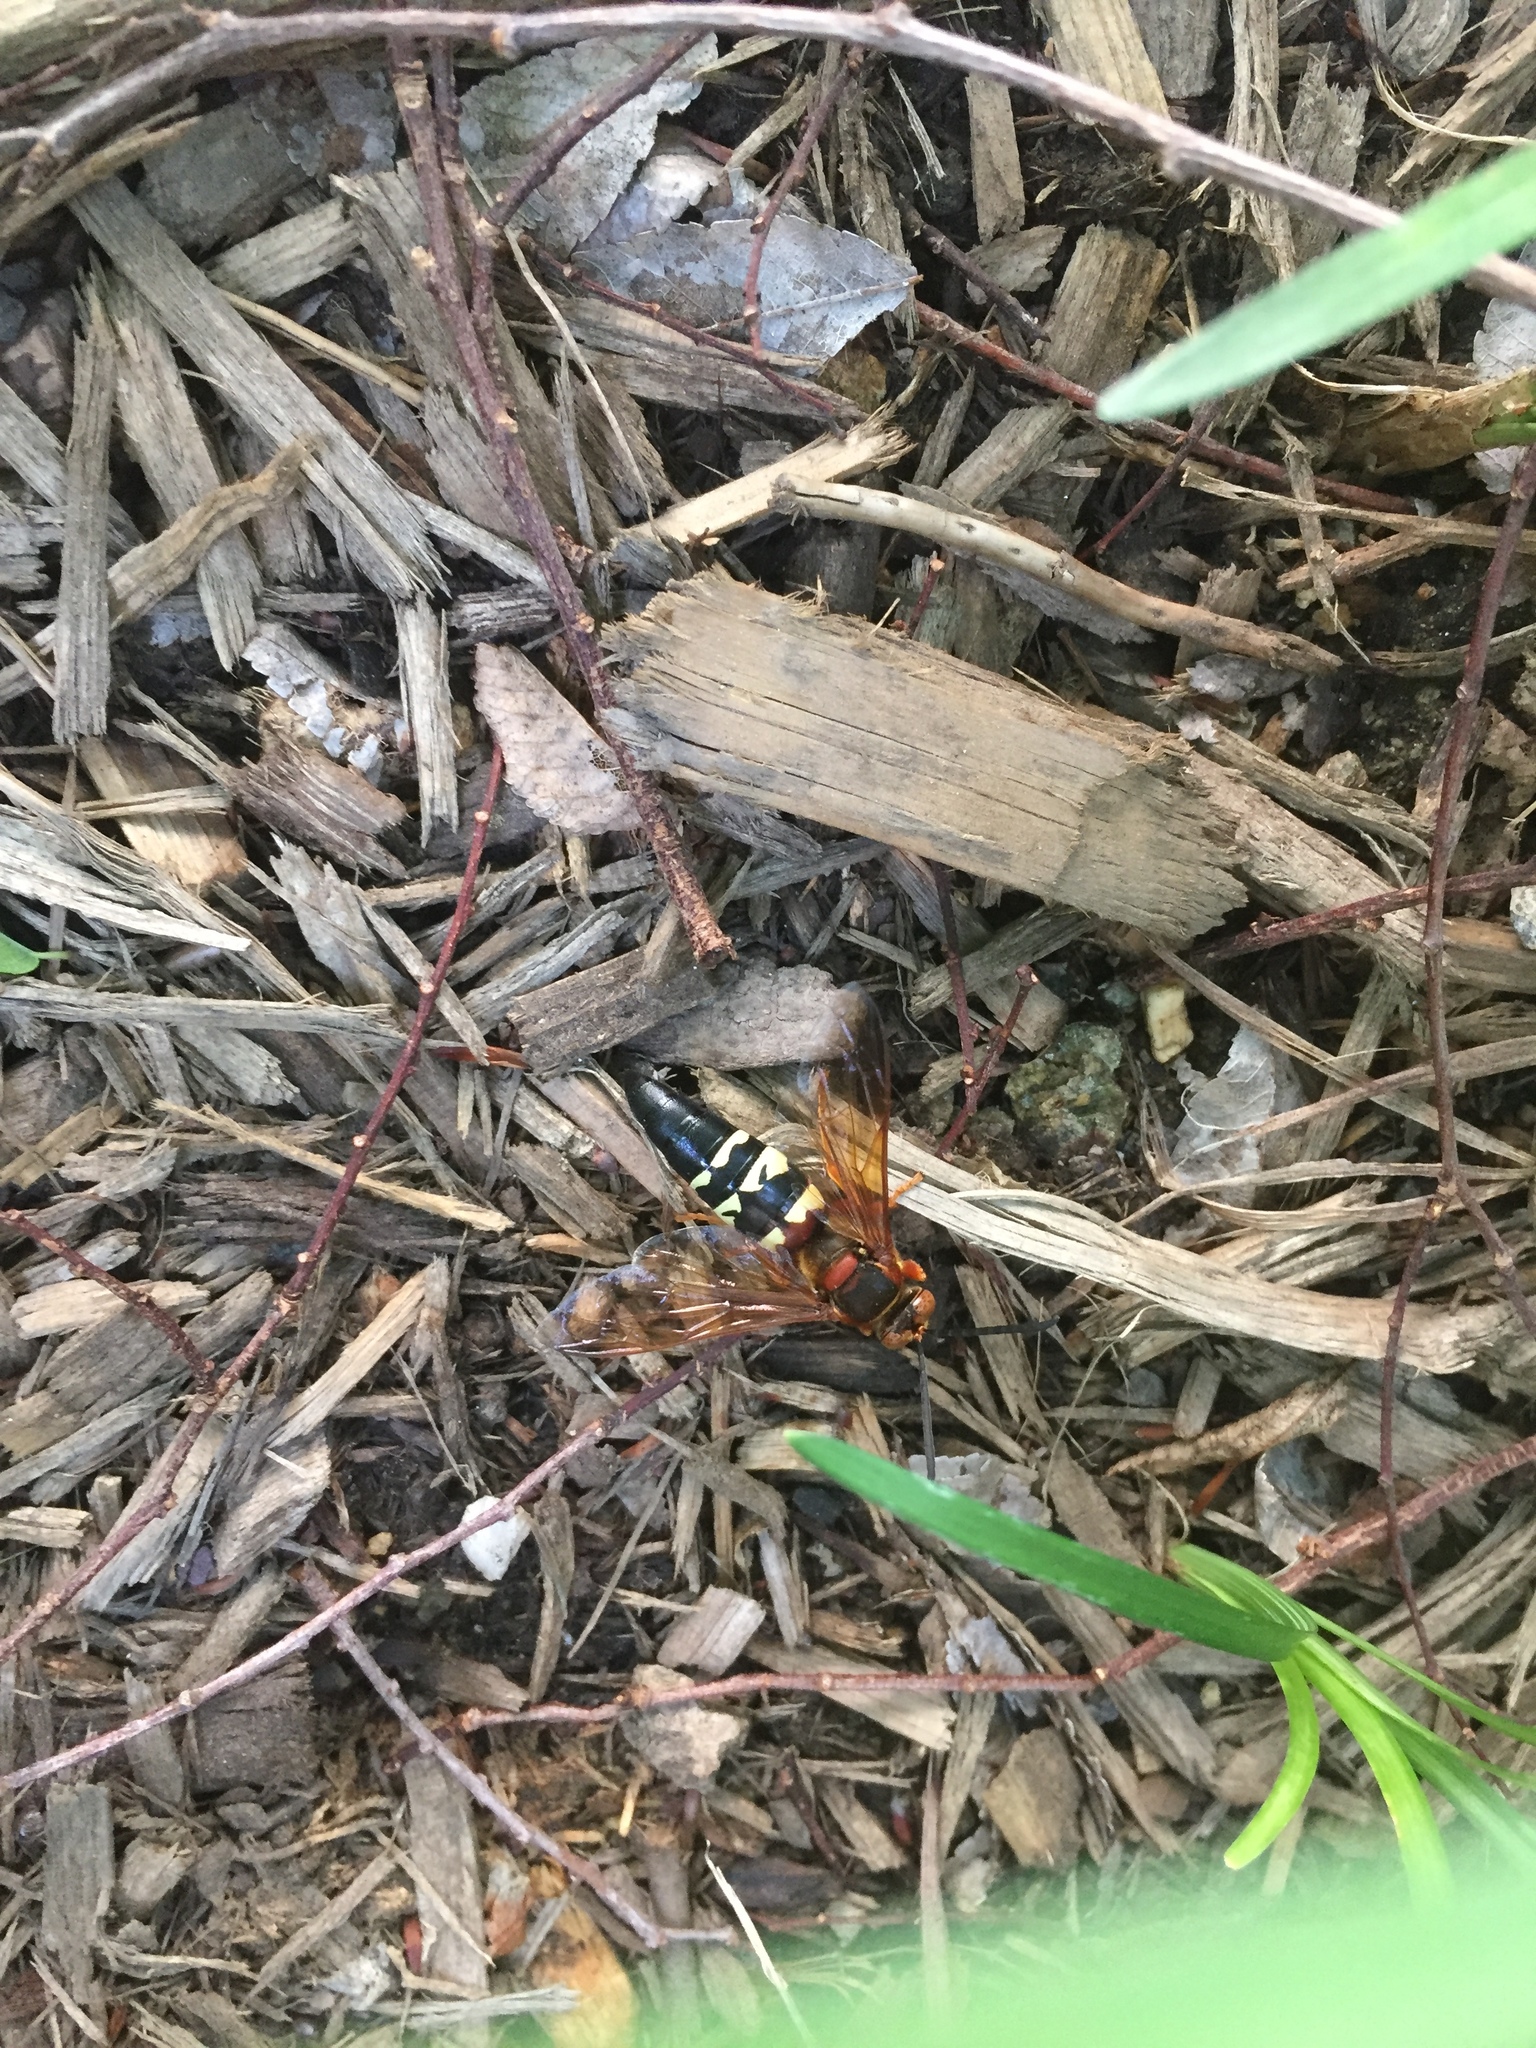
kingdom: Animalia
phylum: Arthropoda
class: Insecta
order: Hymenoptera
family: Crabronidae
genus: Sphecius
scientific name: Sphecius speciosus
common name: Cicada killer
